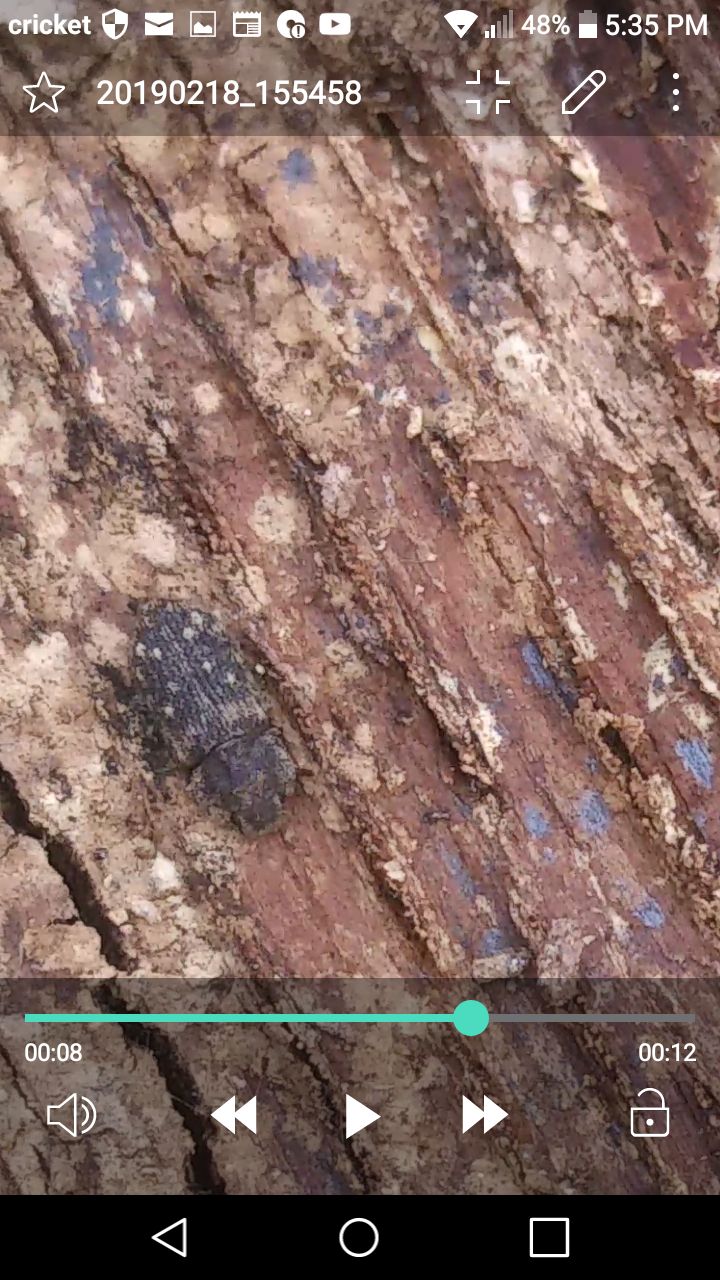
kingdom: Animalia
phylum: Arthropoda
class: Insecta
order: Coleoptera
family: Zopheridae
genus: Namunaria
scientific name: Namunaria guttulata
